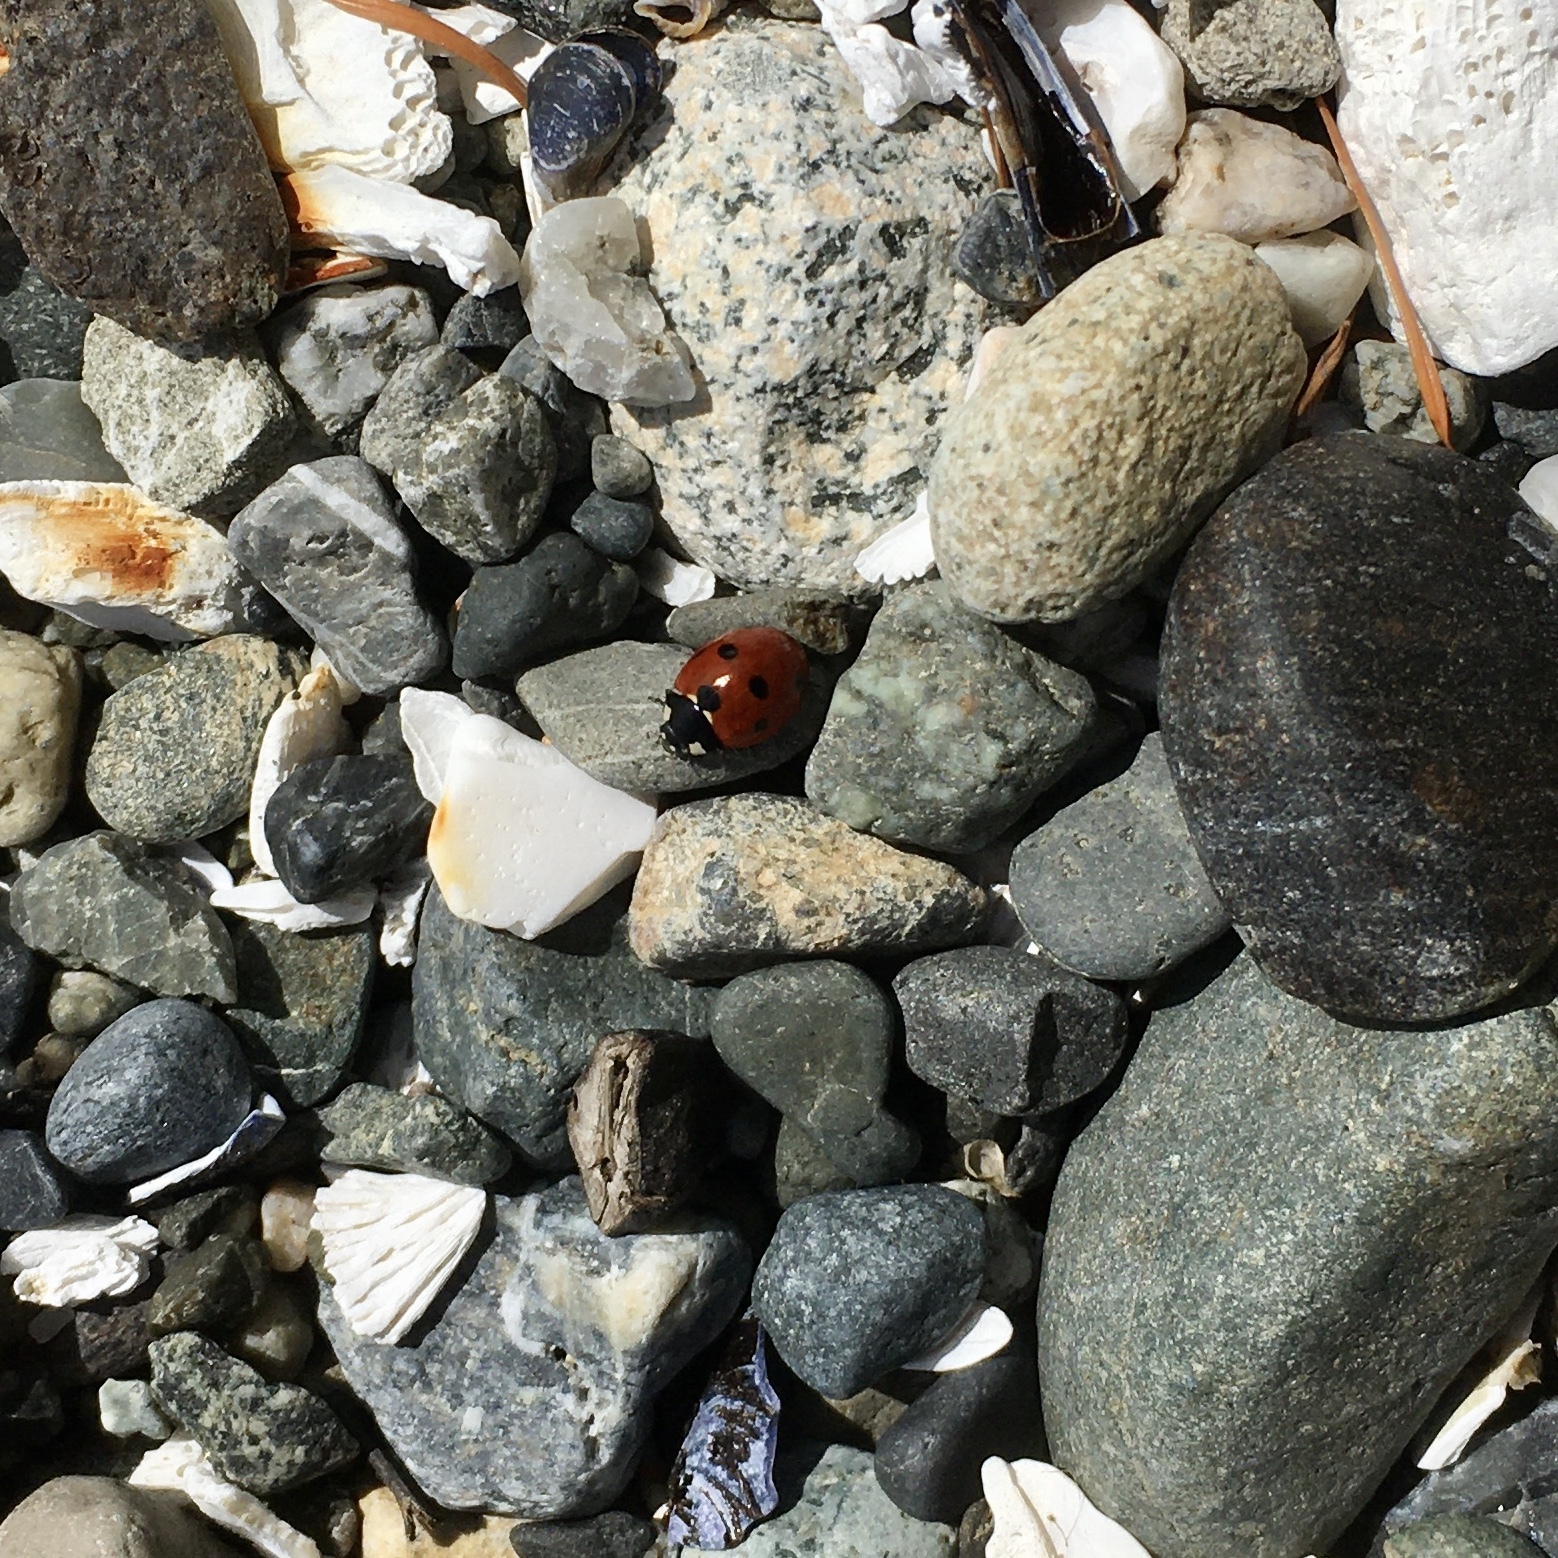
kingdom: Animalia
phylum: Arthropoda
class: Insecta
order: Coleoptera
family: Coccinellidae
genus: Coccinella
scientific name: Coccinella septempunctata
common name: Sevenspotted lady beetle
